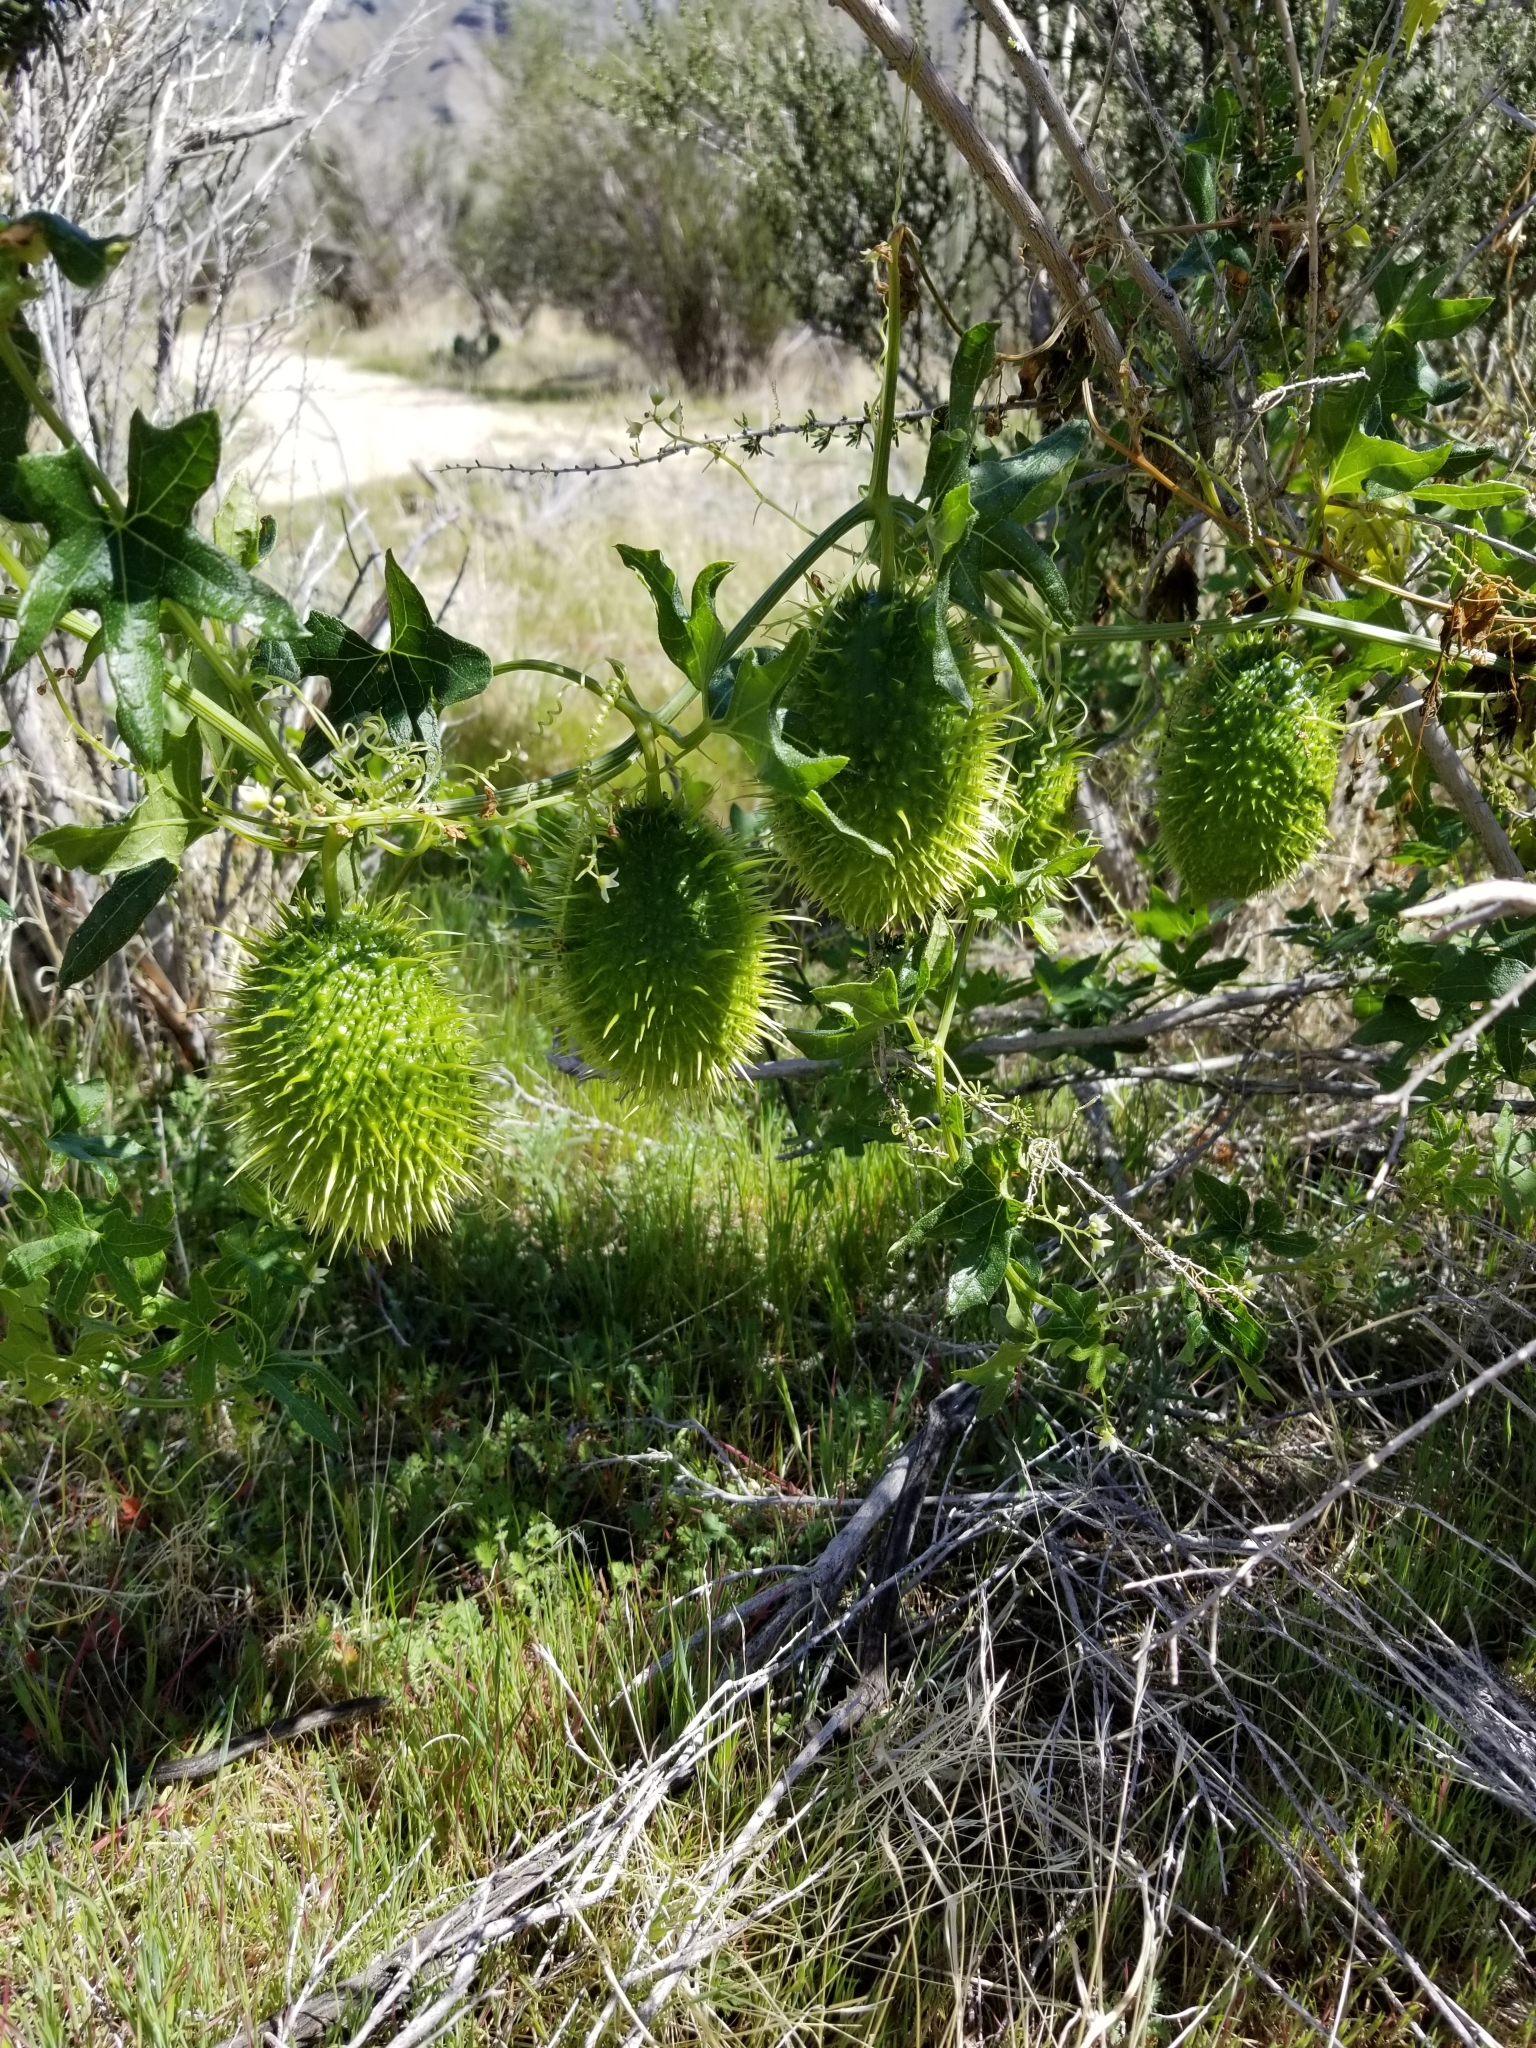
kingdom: Plantae
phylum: Tracheophyta
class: Magnoliopsida
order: Cucurbitales
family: Cucurbitaceae
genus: Marah
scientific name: Marah macrocarpa
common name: Cucamonga manroot
